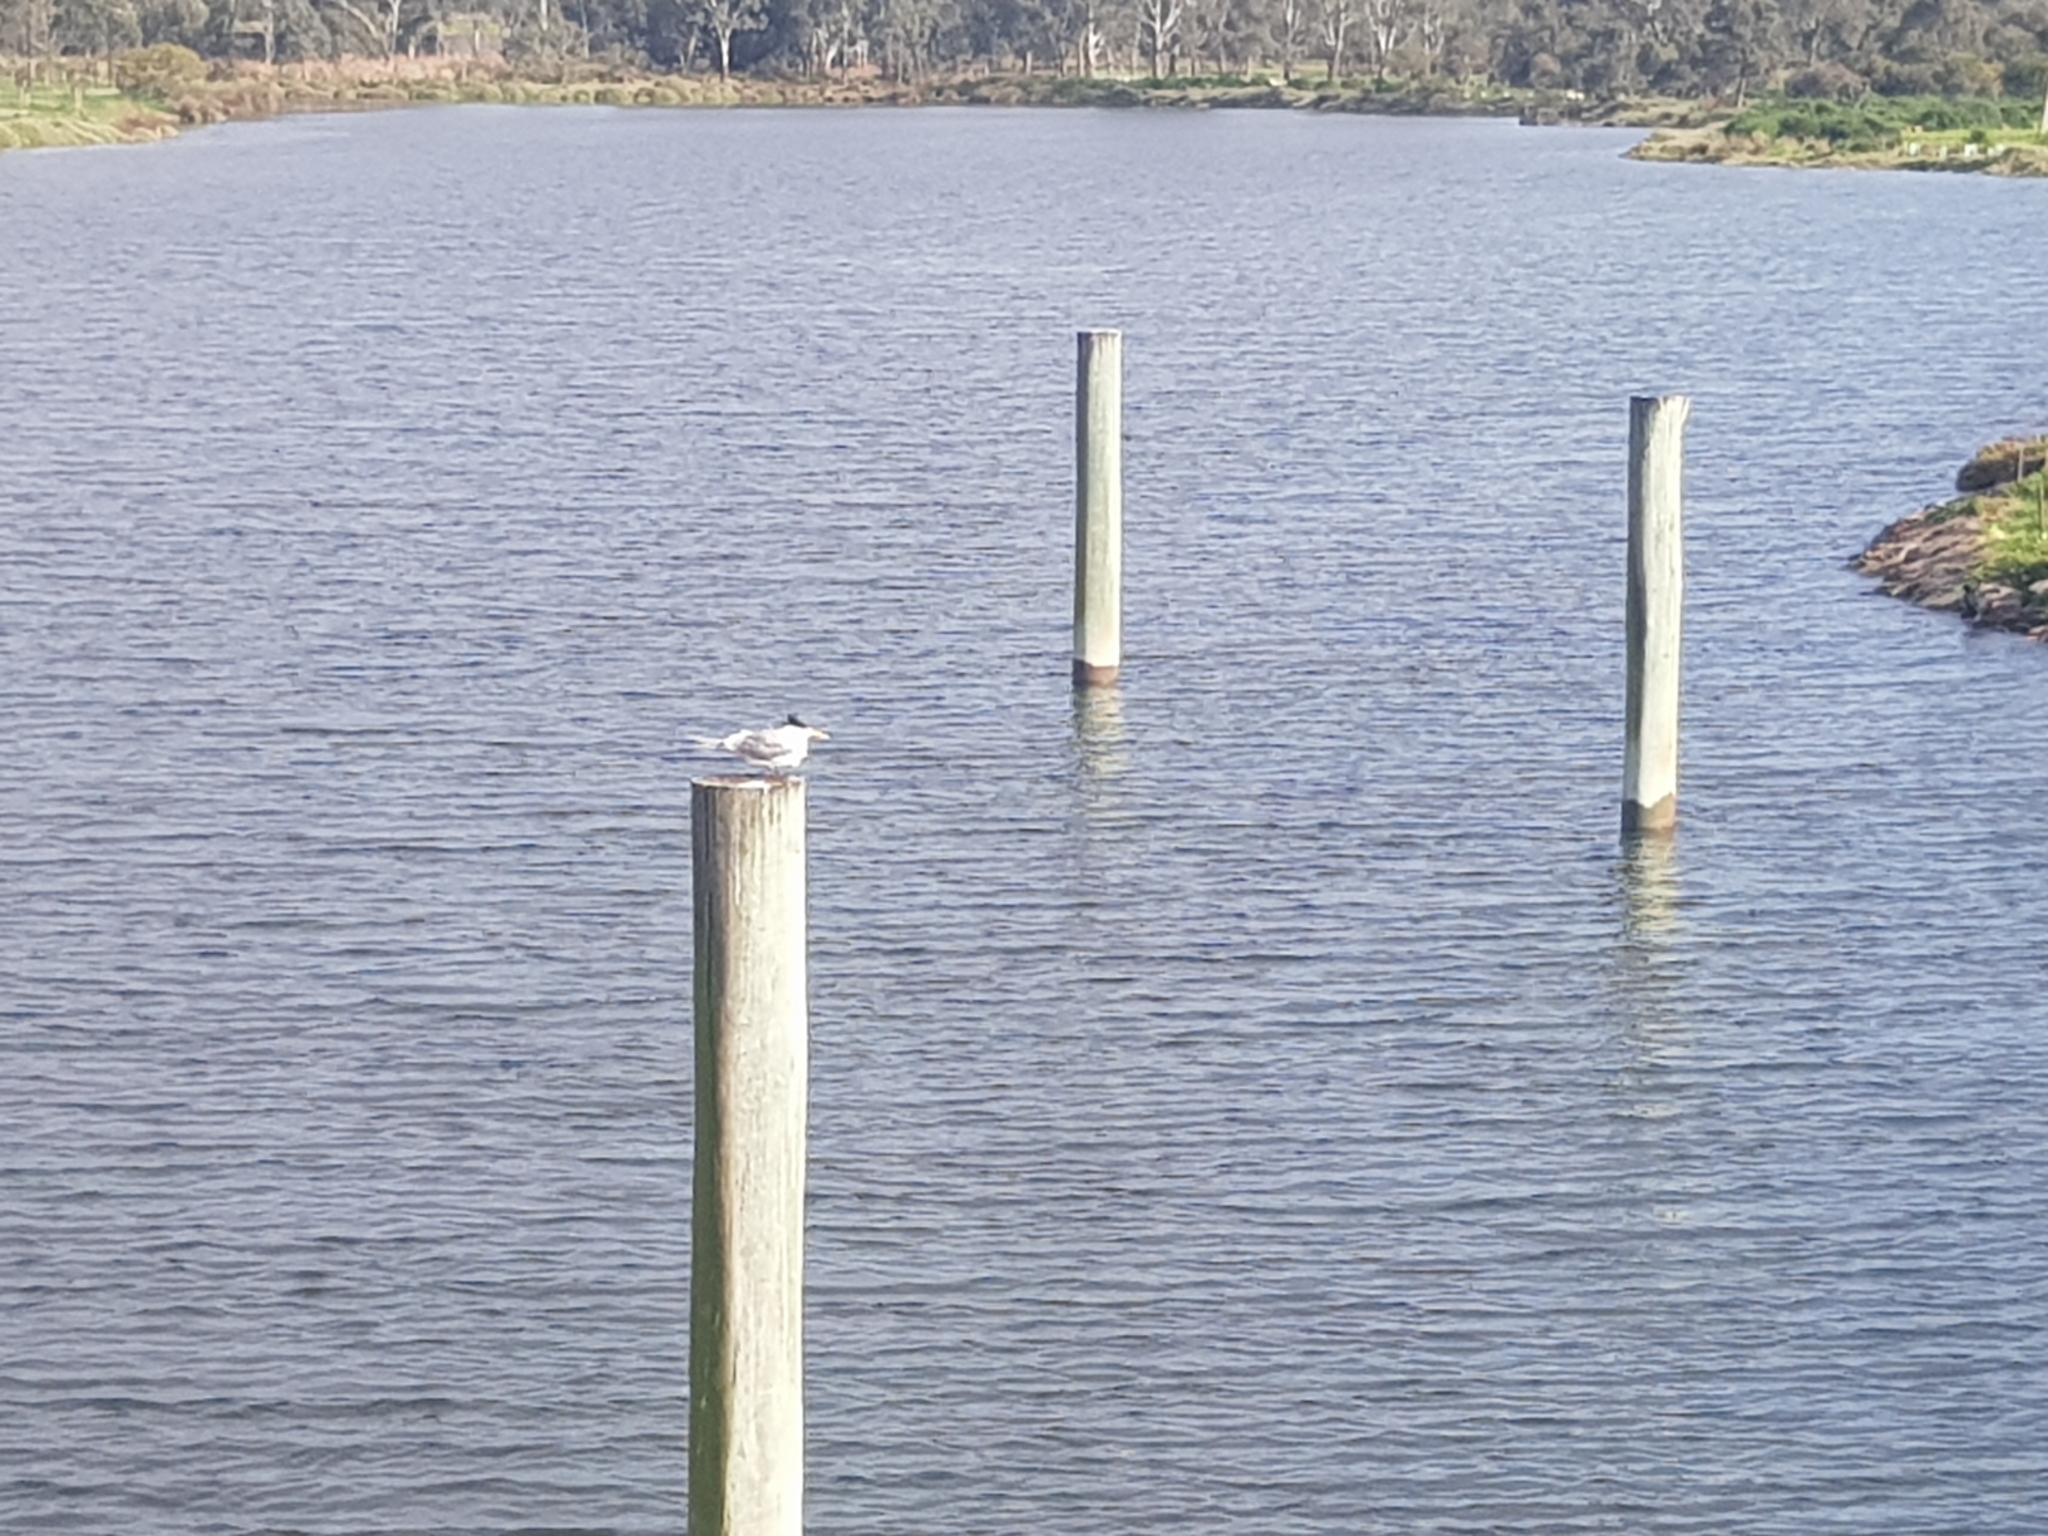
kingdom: Animalia
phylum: Chordata
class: Aves
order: Charadriiformes
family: Laridae
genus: Thalasseus
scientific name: Thalasseus bergii
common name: Greater crested tern
